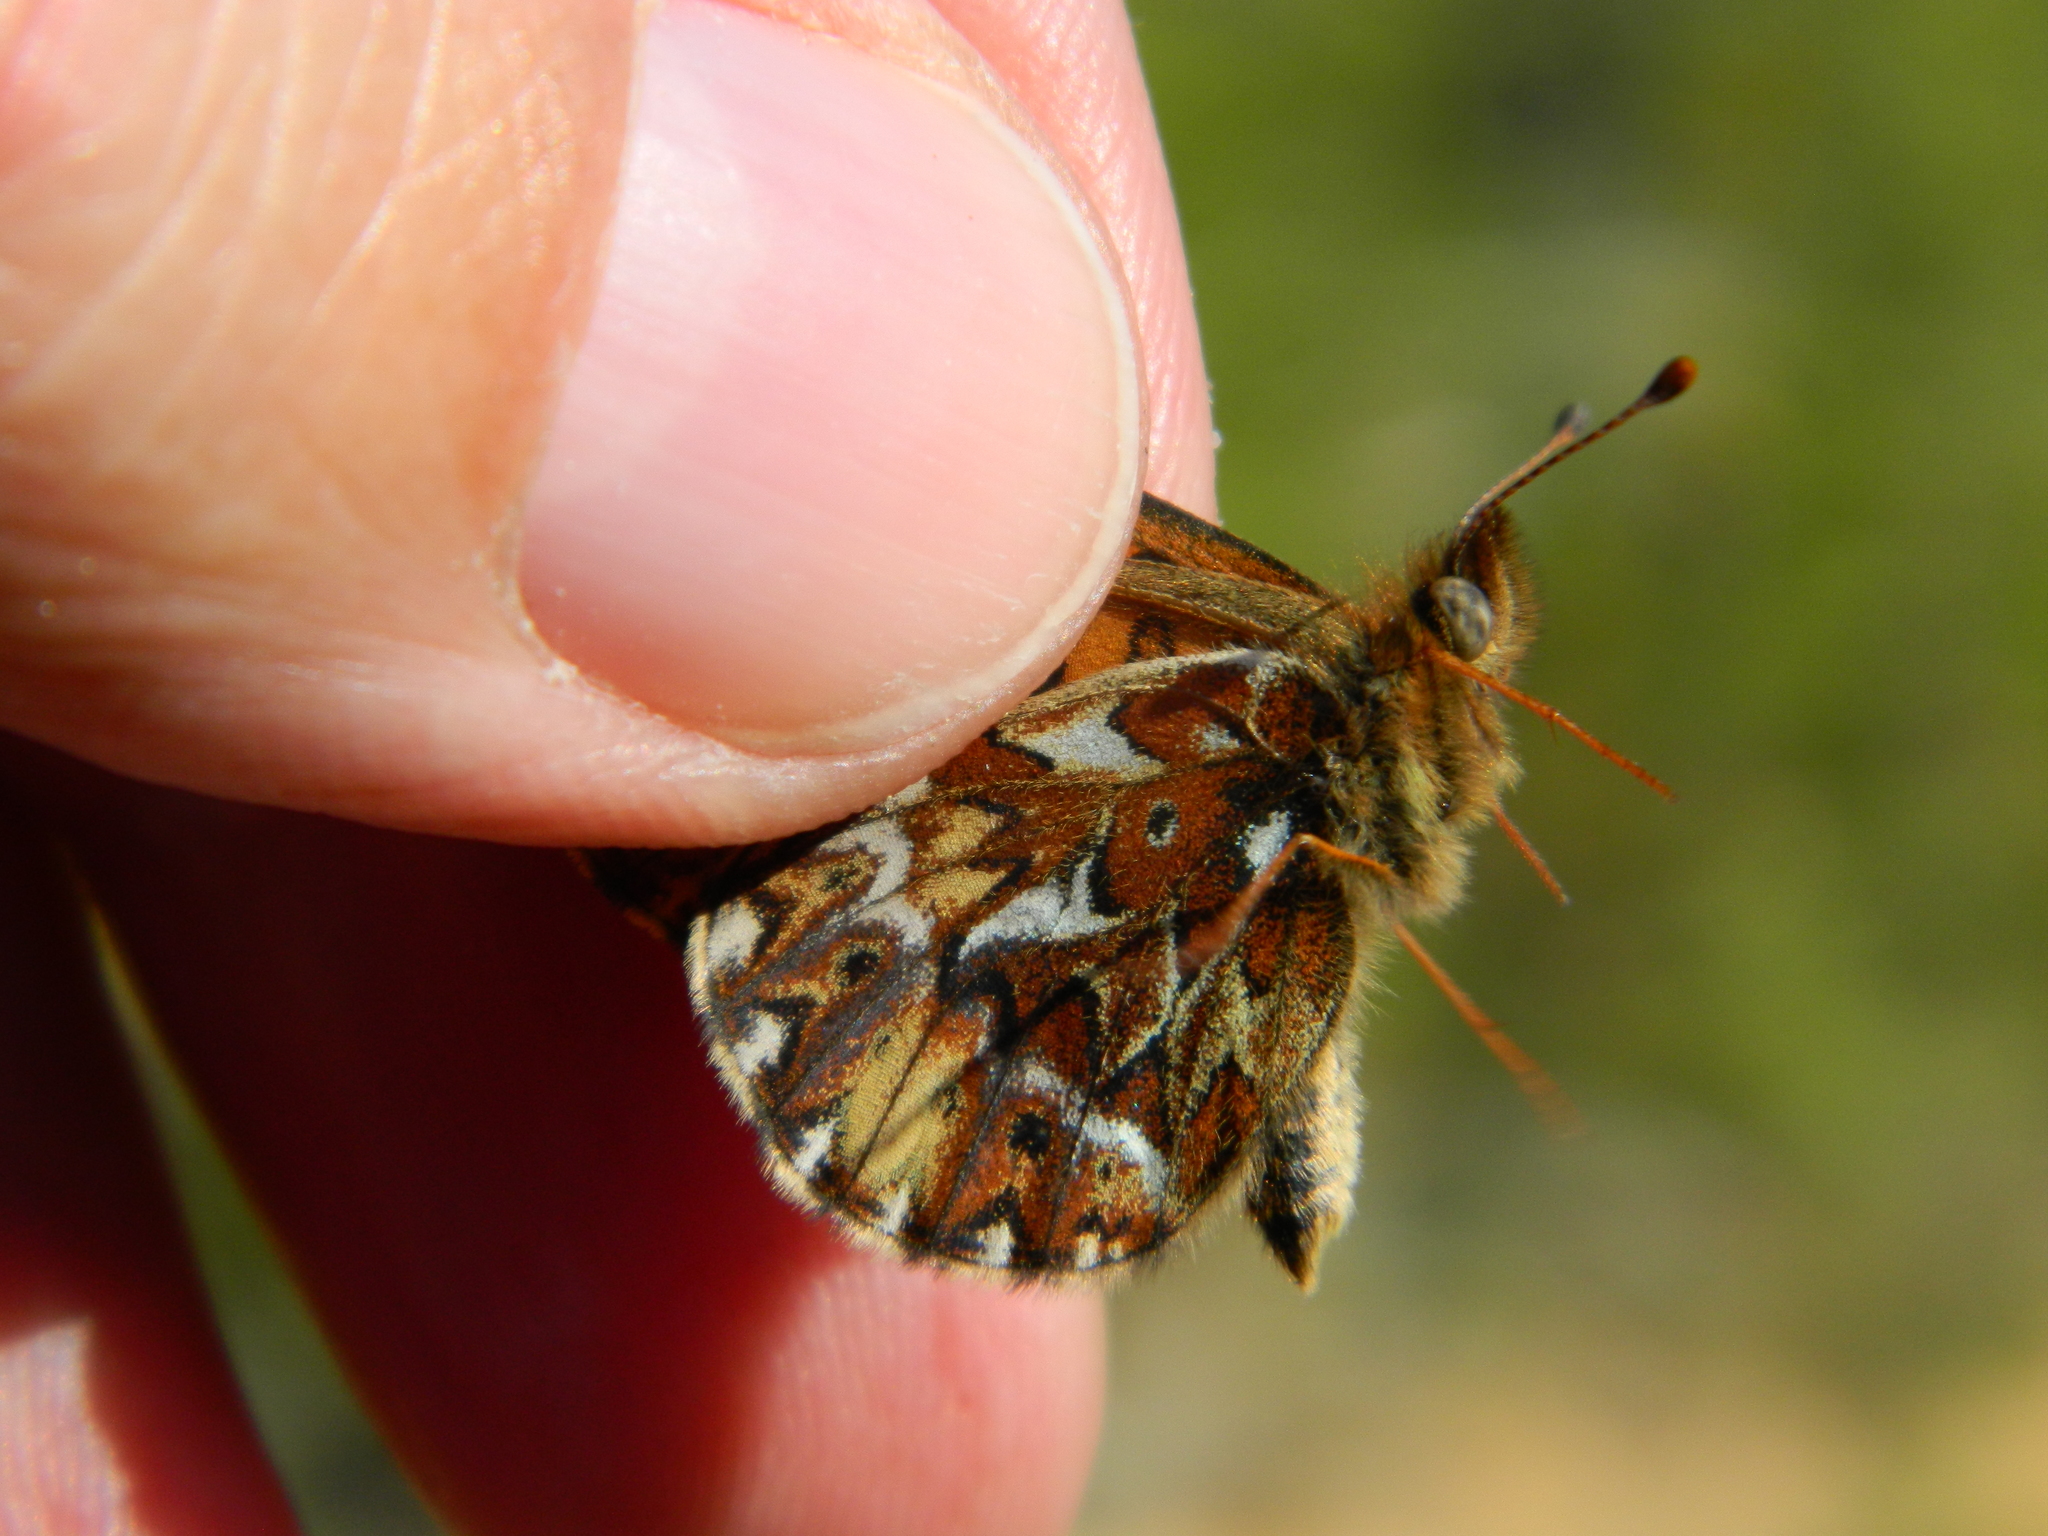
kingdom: Animalia
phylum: Arthropoda
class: Insecta
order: Lepidoptera
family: Nymphalidae
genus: Boloria
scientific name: Boloria freija
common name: Freija fritillary
